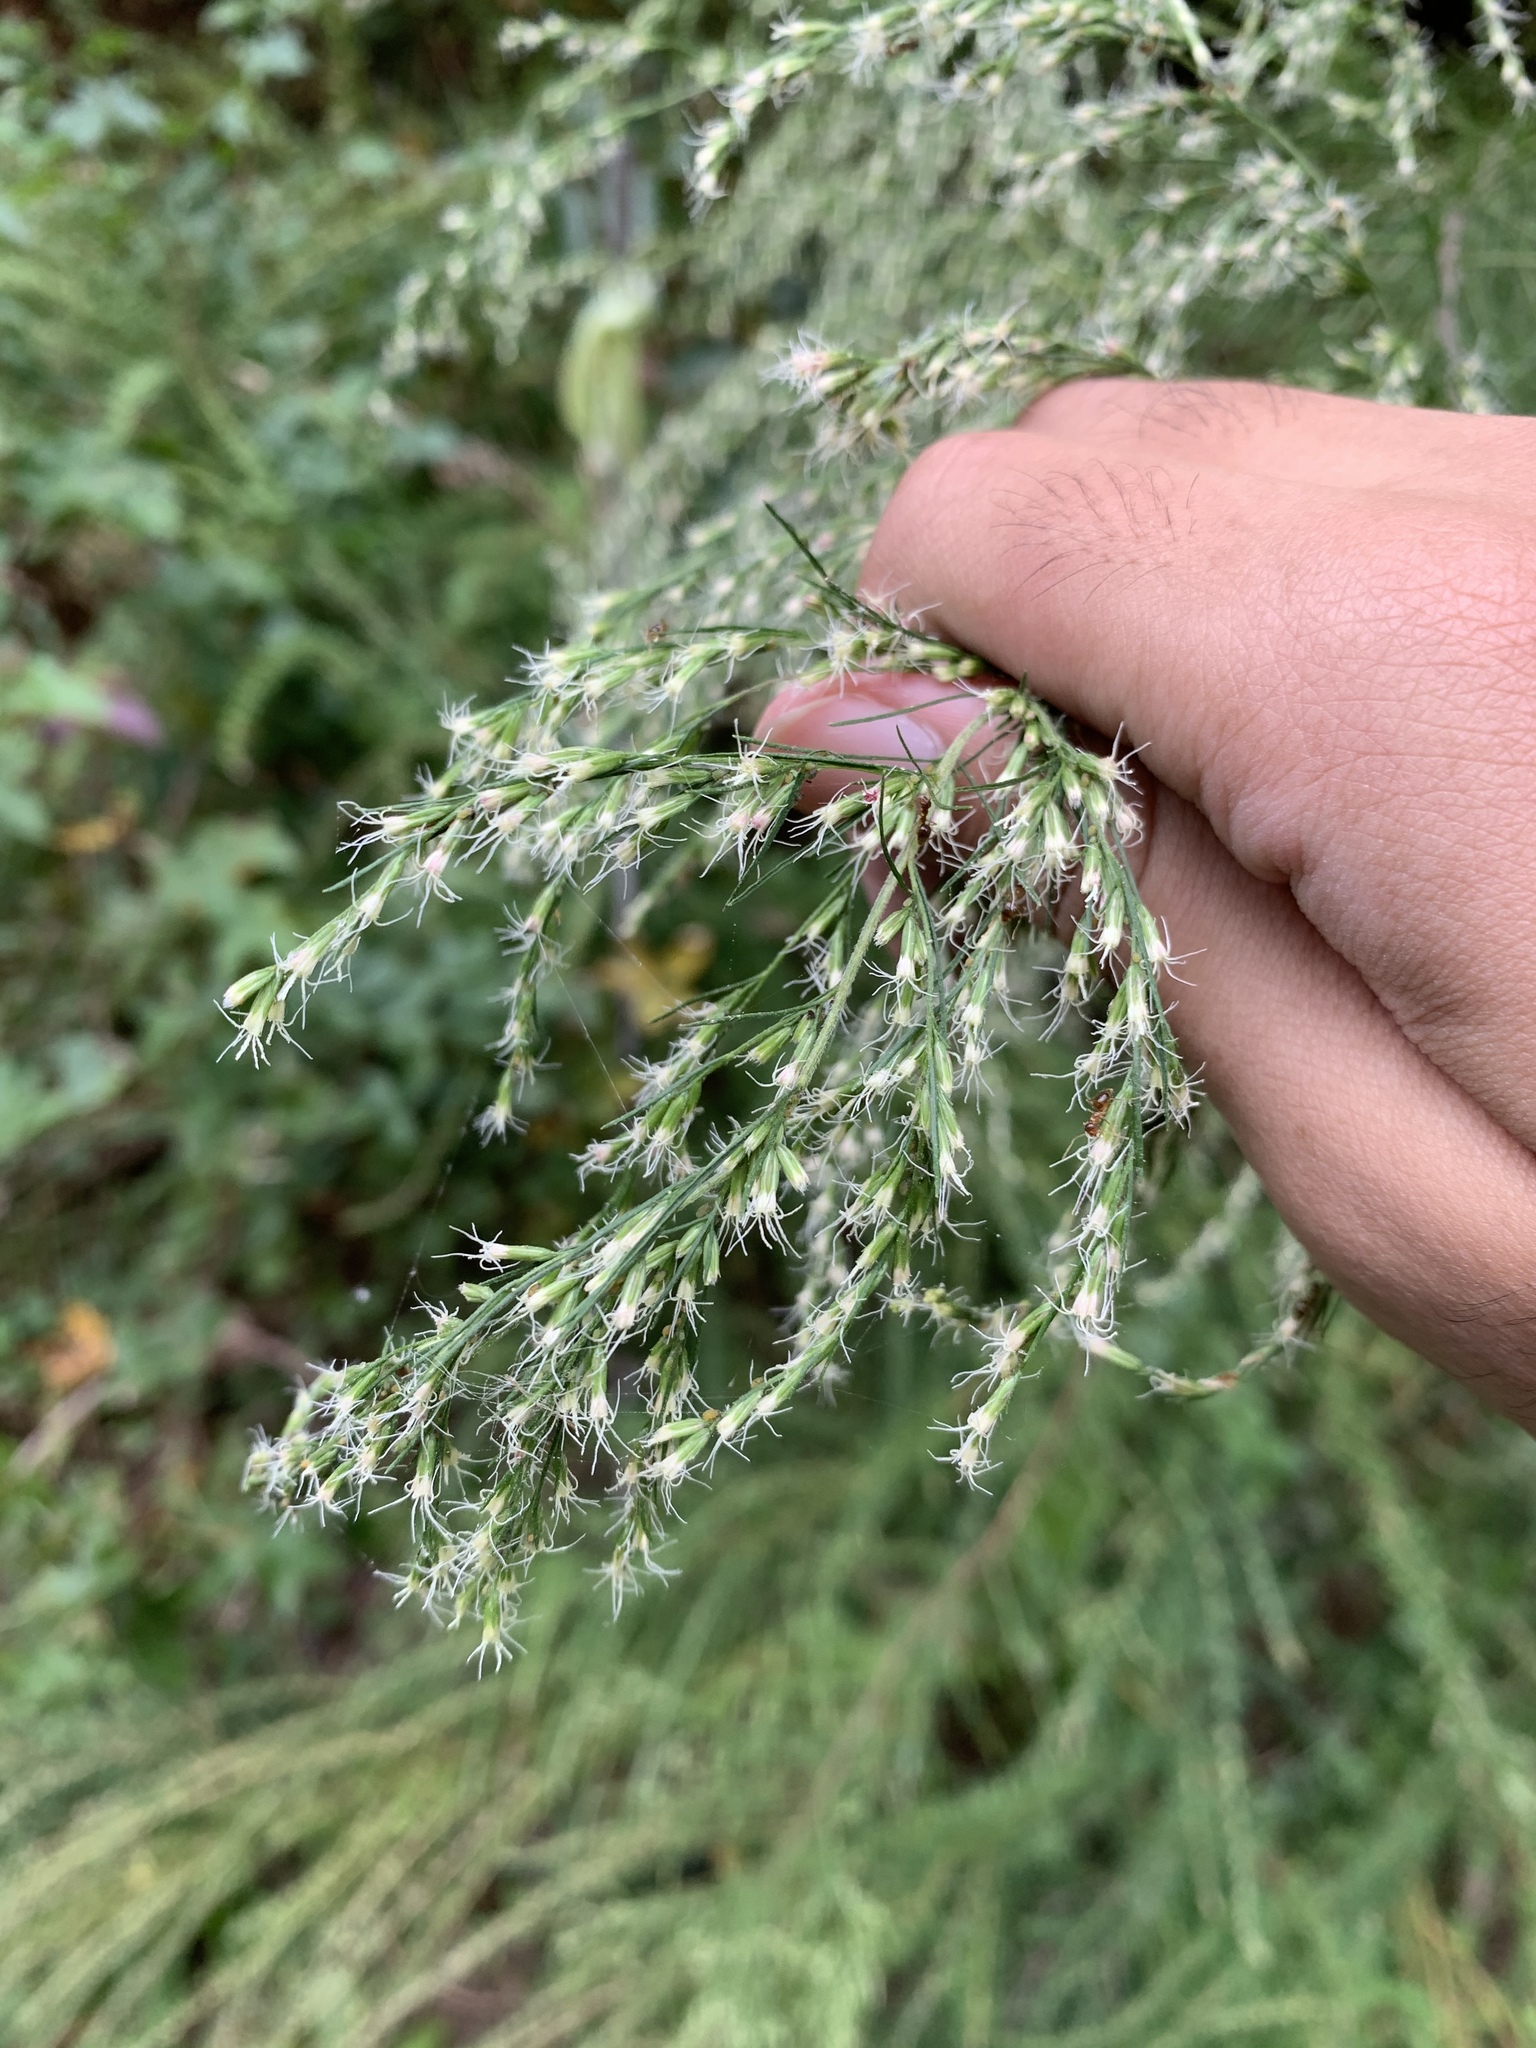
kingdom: Plantae
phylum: Tracheophyta
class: Magnoliopsida
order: Asterales
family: Asteraceae
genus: Eupatorium
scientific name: Eupatorium capillifolium
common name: Dog-fennel
